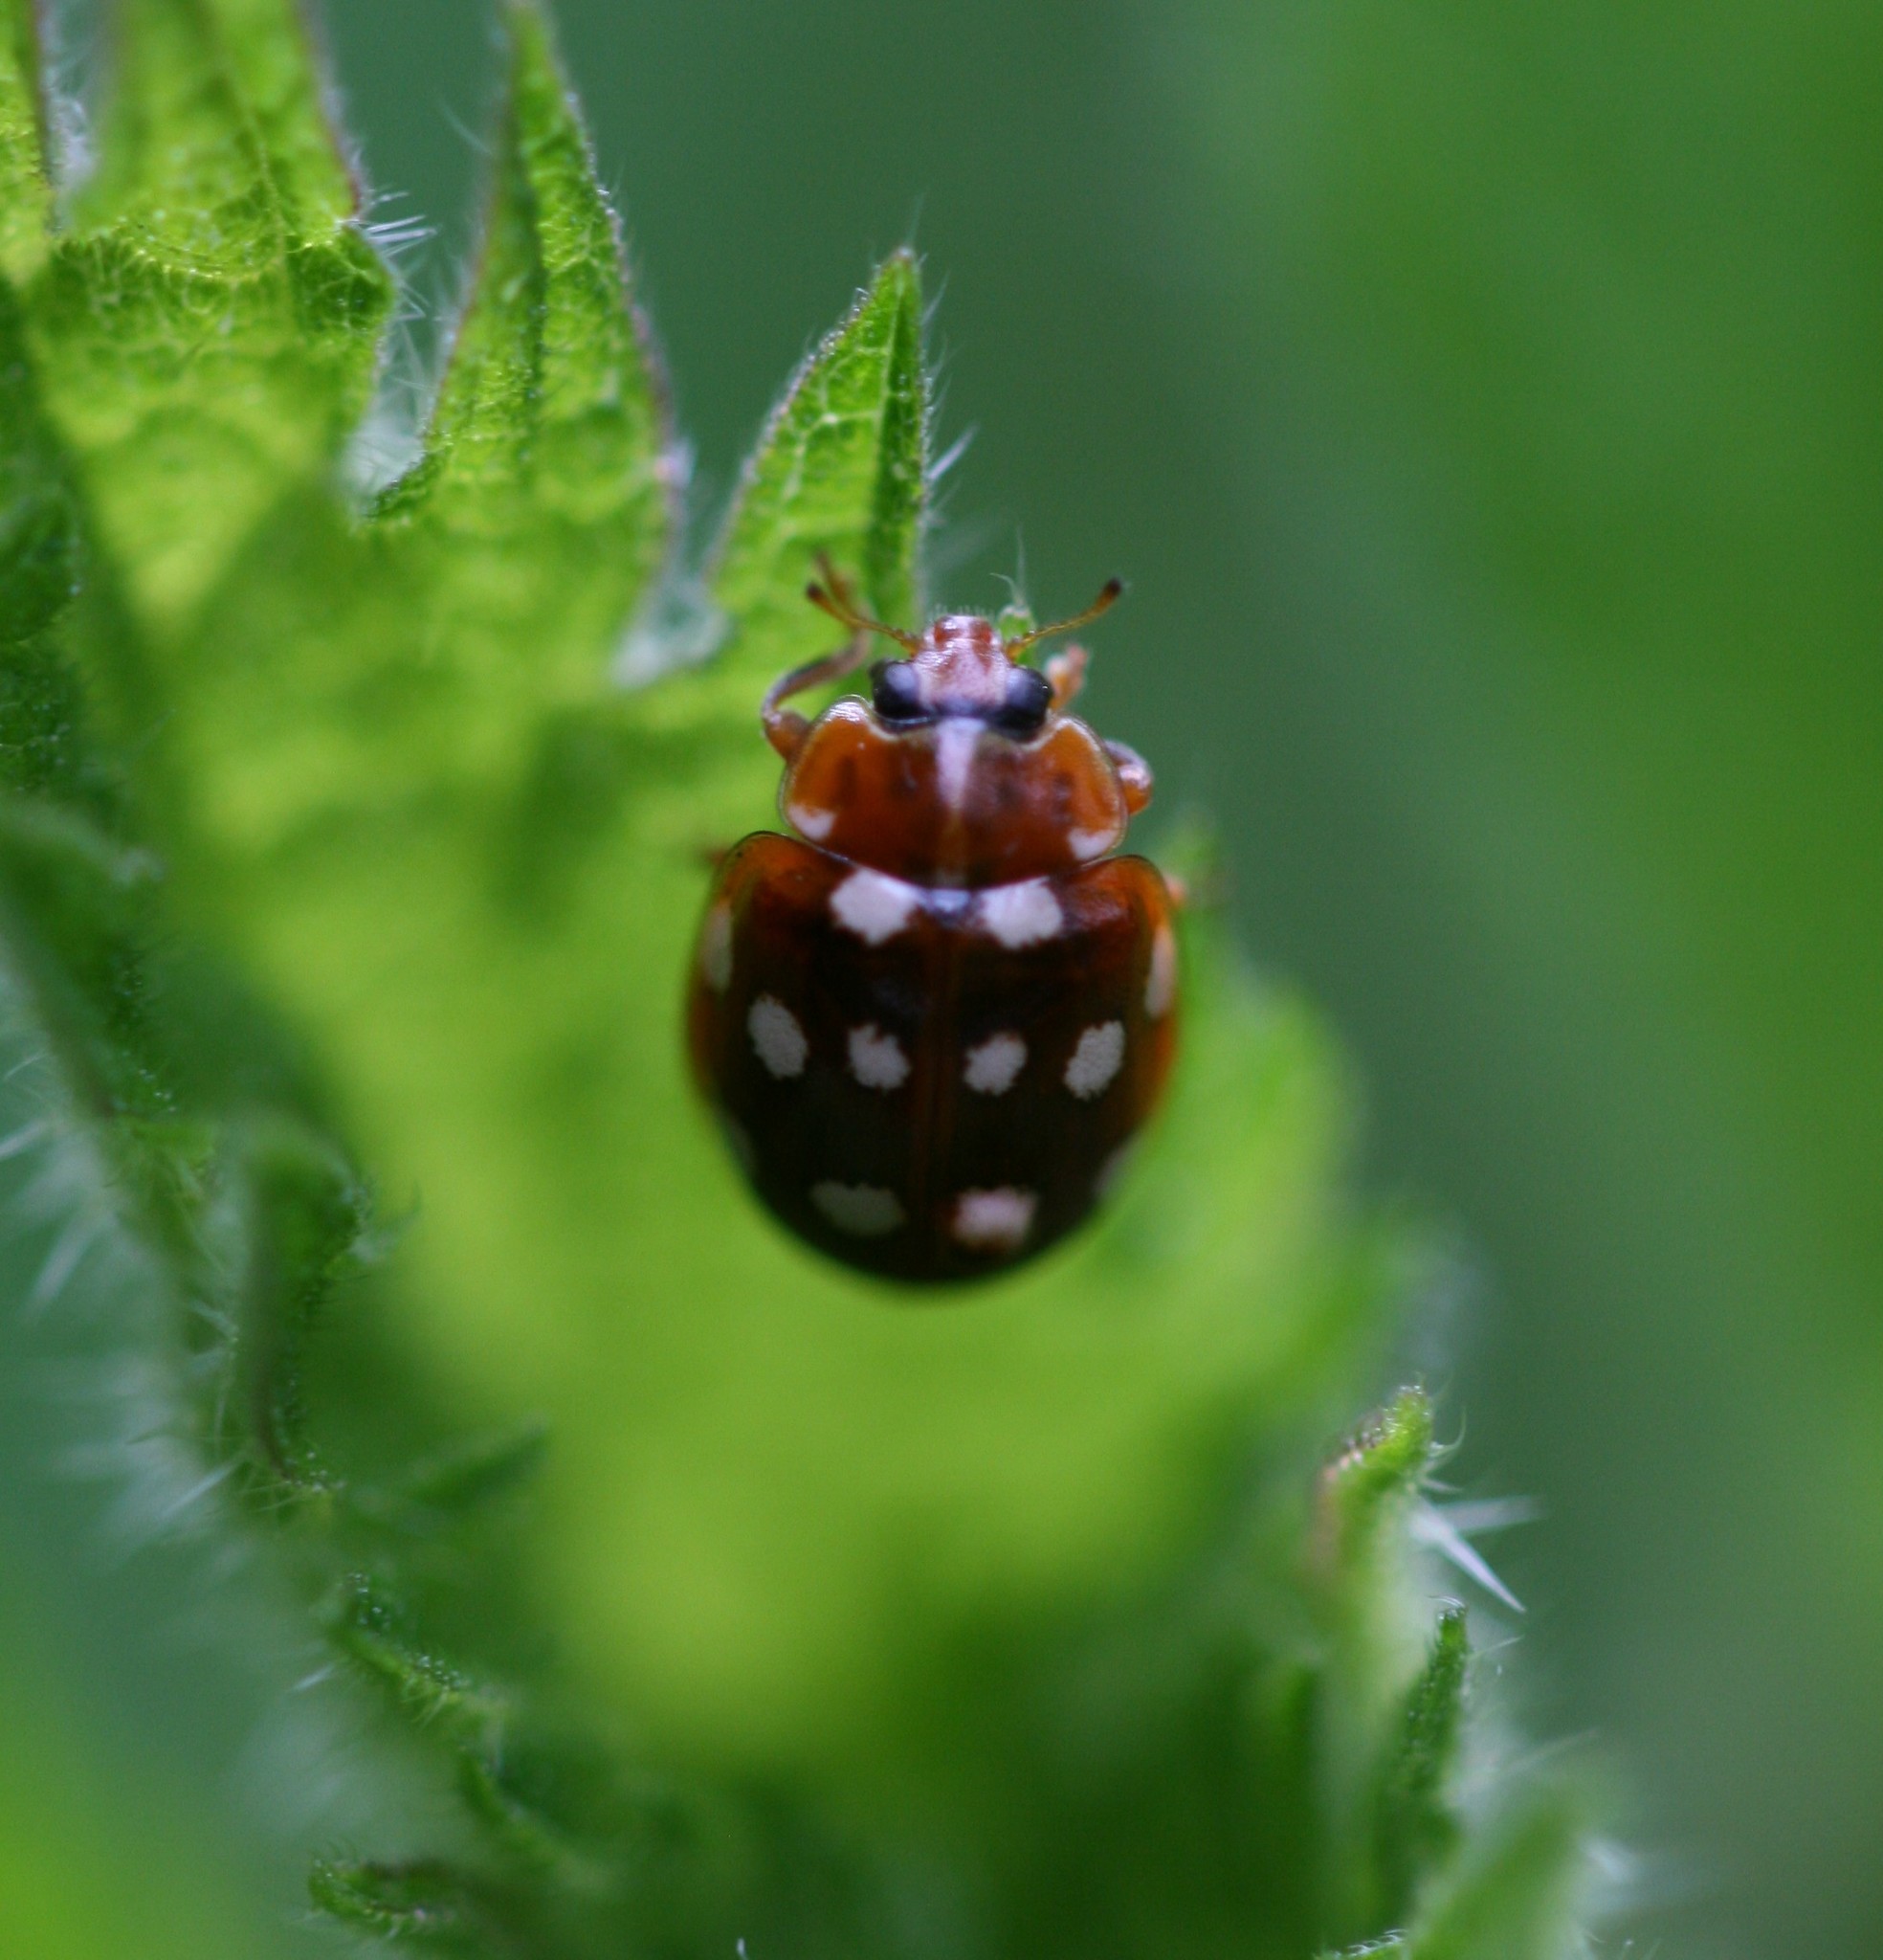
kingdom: Animalia
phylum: Arthropoda
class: Insecta
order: Coleoptera
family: Coccinellidae
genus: Calvia
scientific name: Calvia quatuordecimguttata
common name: Cream-spot ladybird
